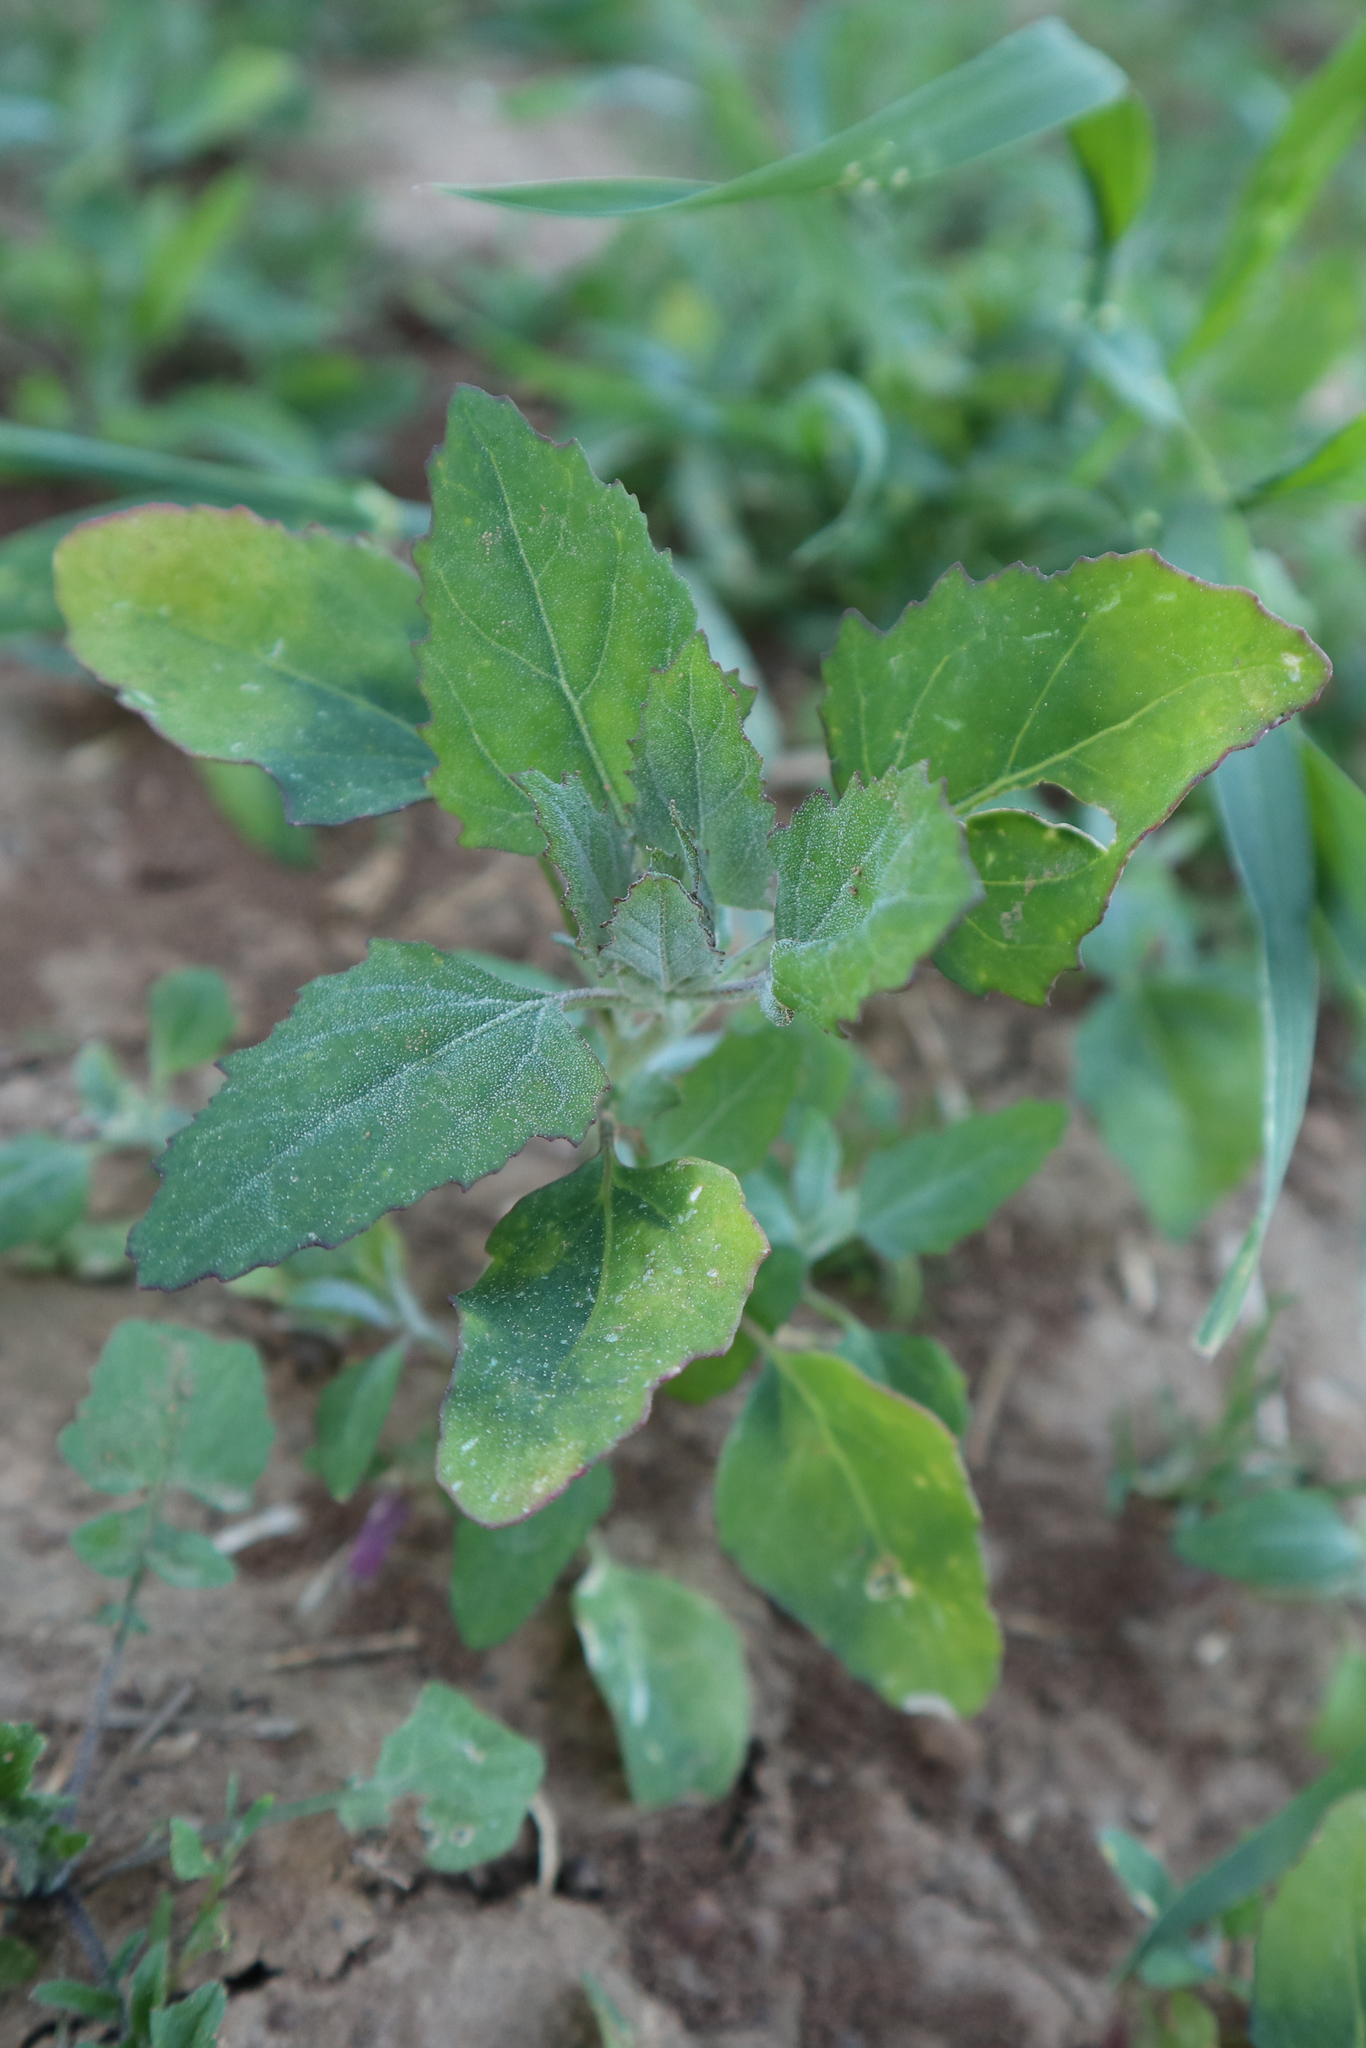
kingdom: Plantae
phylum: Tracheophyta
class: Magnoliopsida
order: Caryophyllales
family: Amaranthaceae
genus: Chenopodium
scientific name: Chenopodium album
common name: Fat-hen
